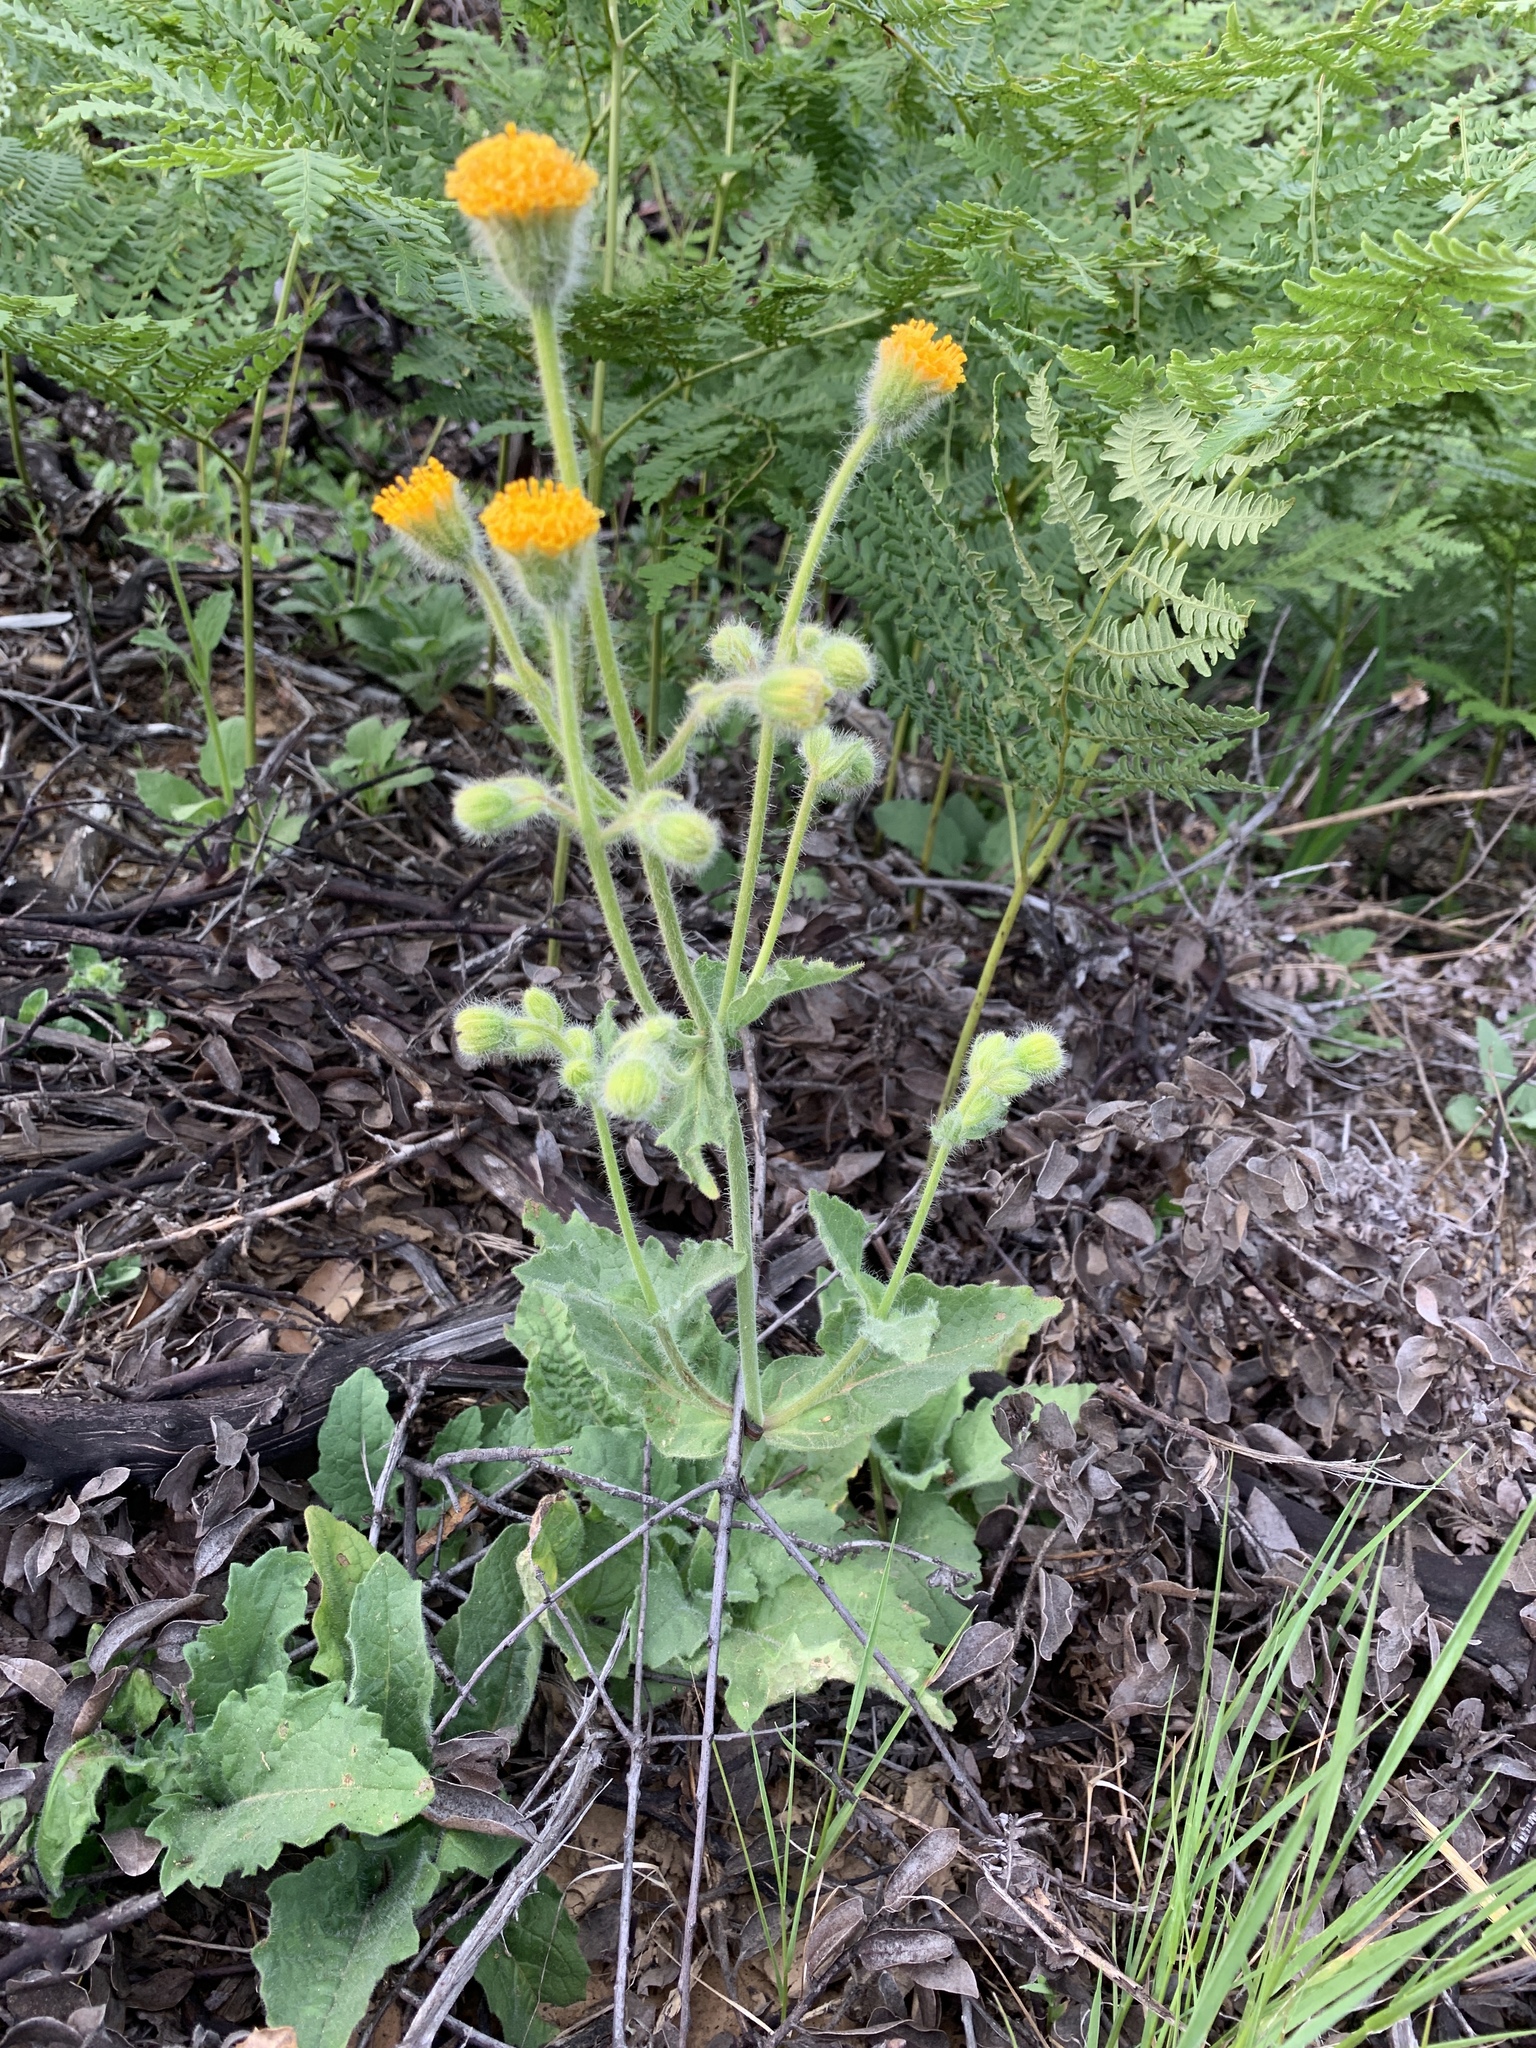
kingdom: Plantae
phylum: Tracheophyta
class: Magnoliopsida
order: Asterales
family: Asteraceae
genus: Arnica
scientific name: Arnica discoidea
